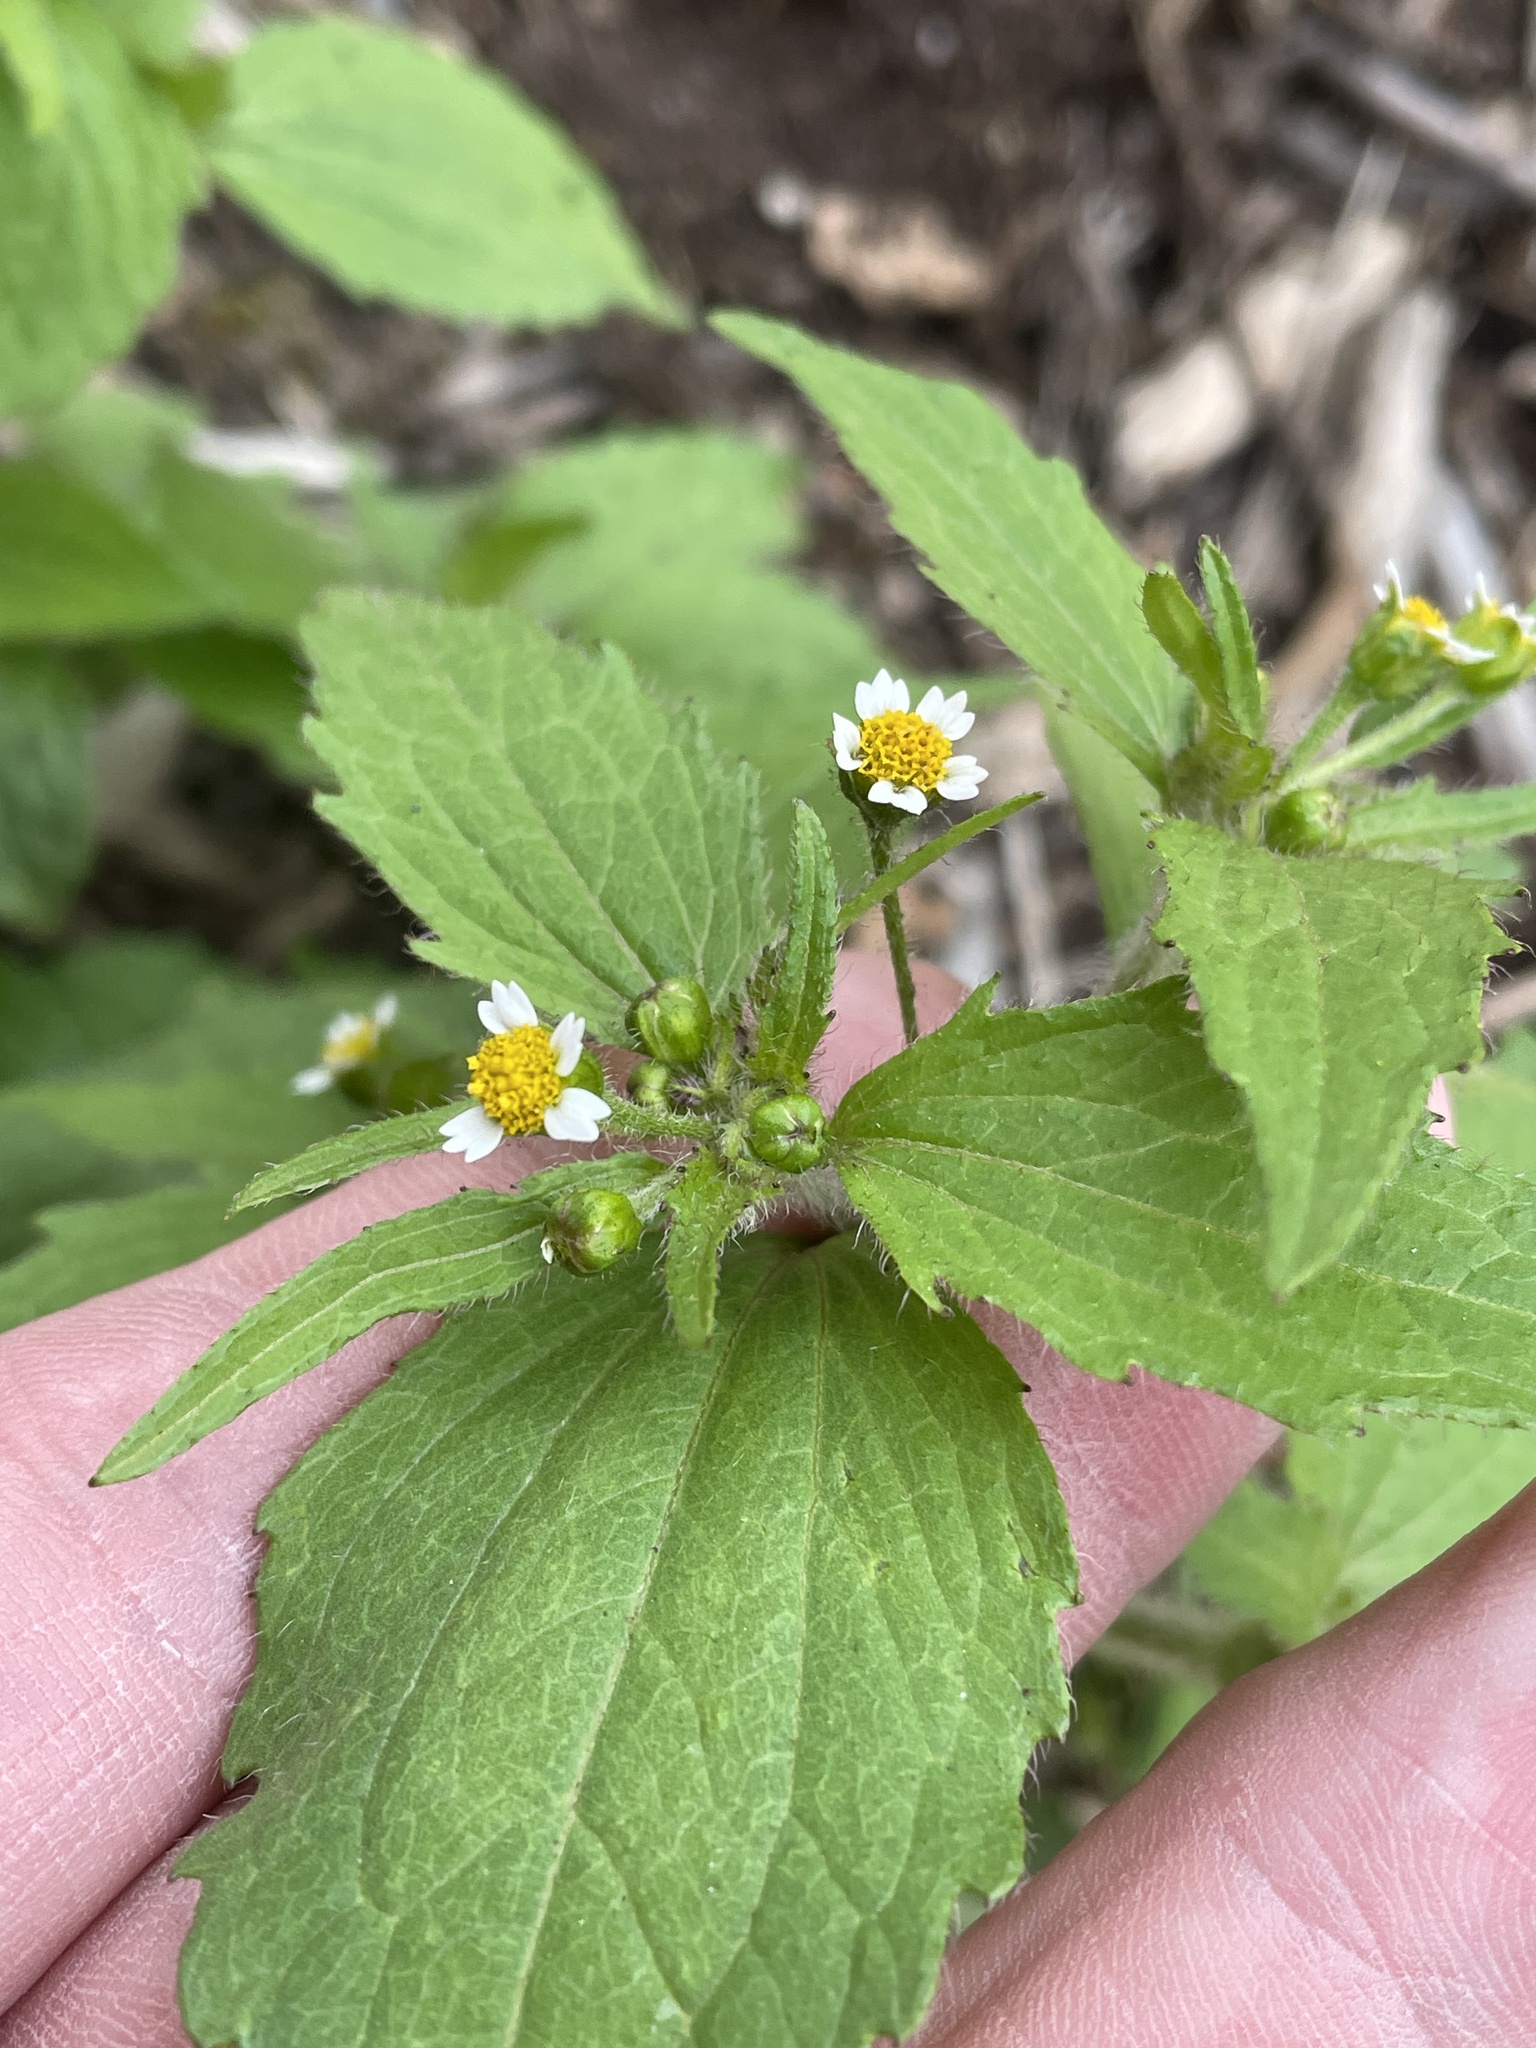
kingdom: Plantae
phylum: Tracheophyta
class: Magnoliopsida
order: Asterales
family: Asteraceae
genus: Galinsoga
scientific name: Galinsoga quadriradiata
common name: Shaggy soldier
